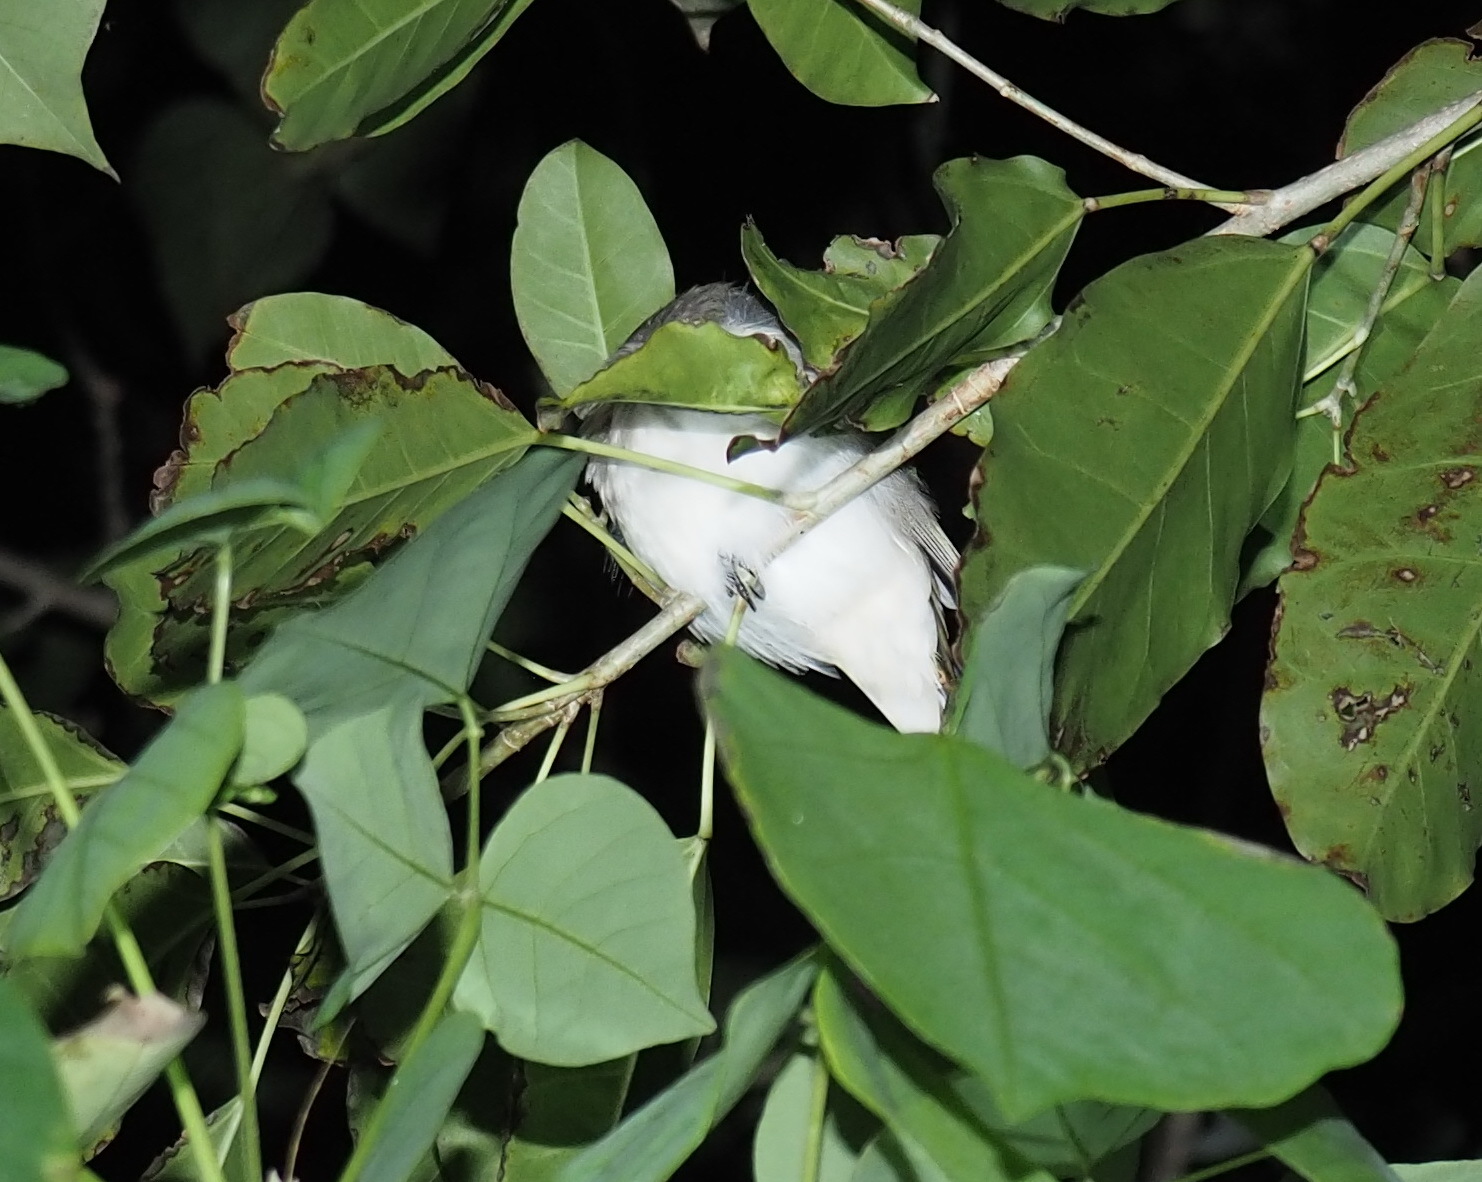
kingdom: Animalia
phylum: Chordata
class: Aves
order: Passeriformes
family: Pycnonotidae
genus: Pycnonotus
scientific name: Pycnonotus sinensis
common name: Light-vented bulbul
